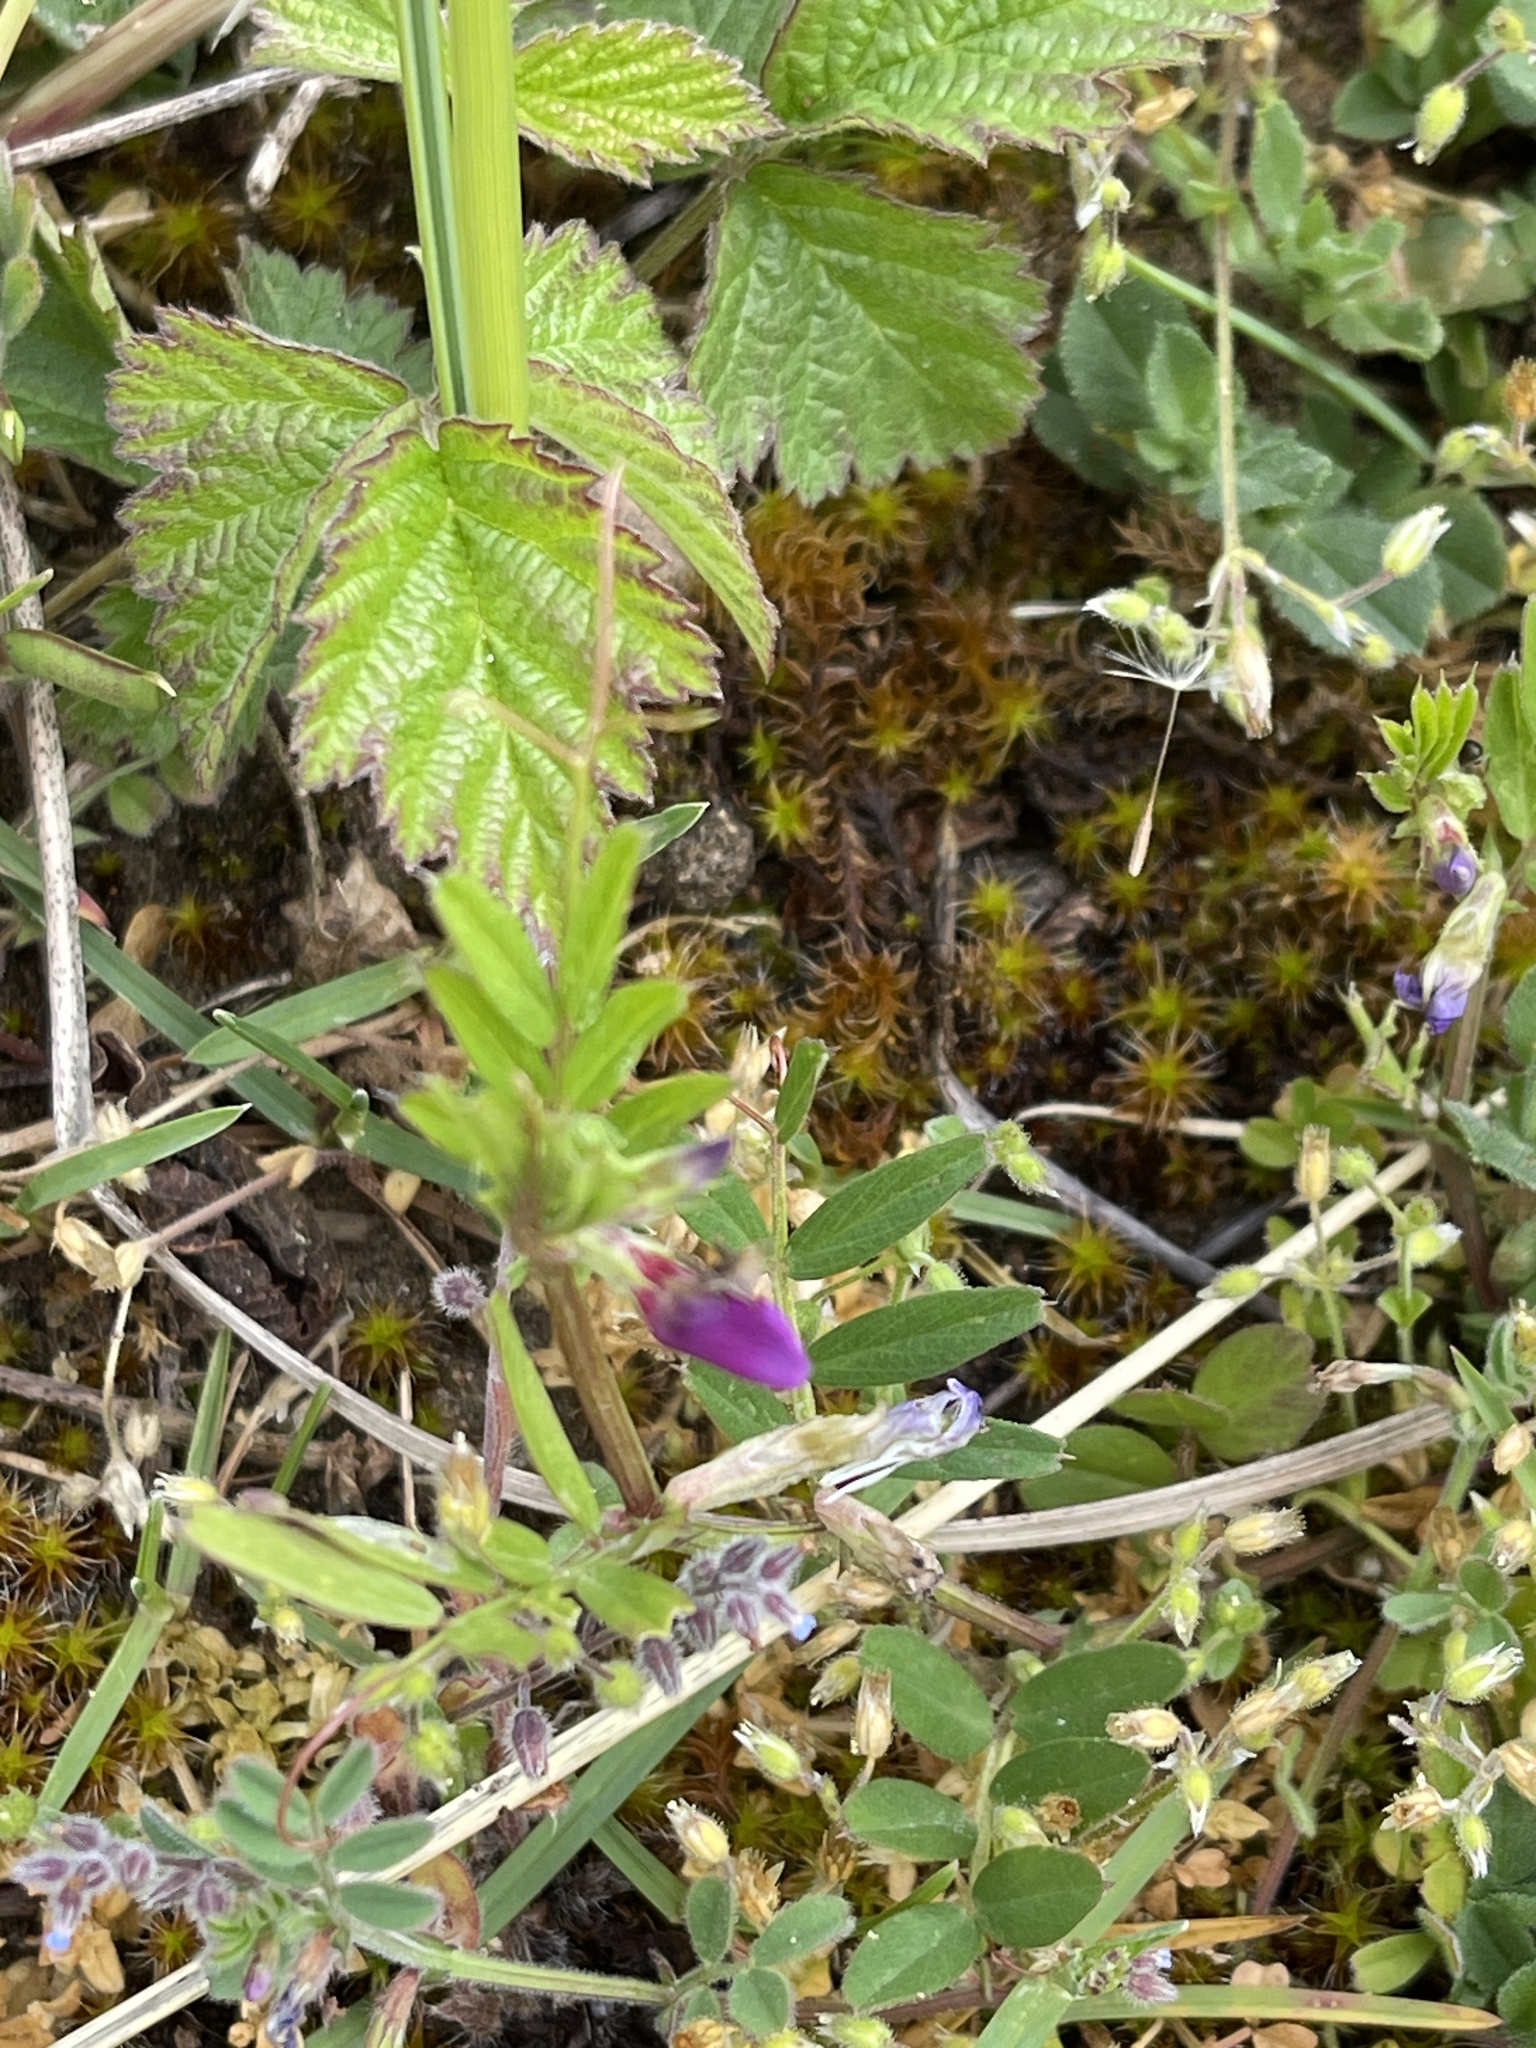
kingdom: Plantae
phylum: Tracheophyta
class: Magnoliopsida
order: Fabales
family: Fabaceae
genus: Vicia
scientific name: Vicia lathyroides
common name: Spring vetch
